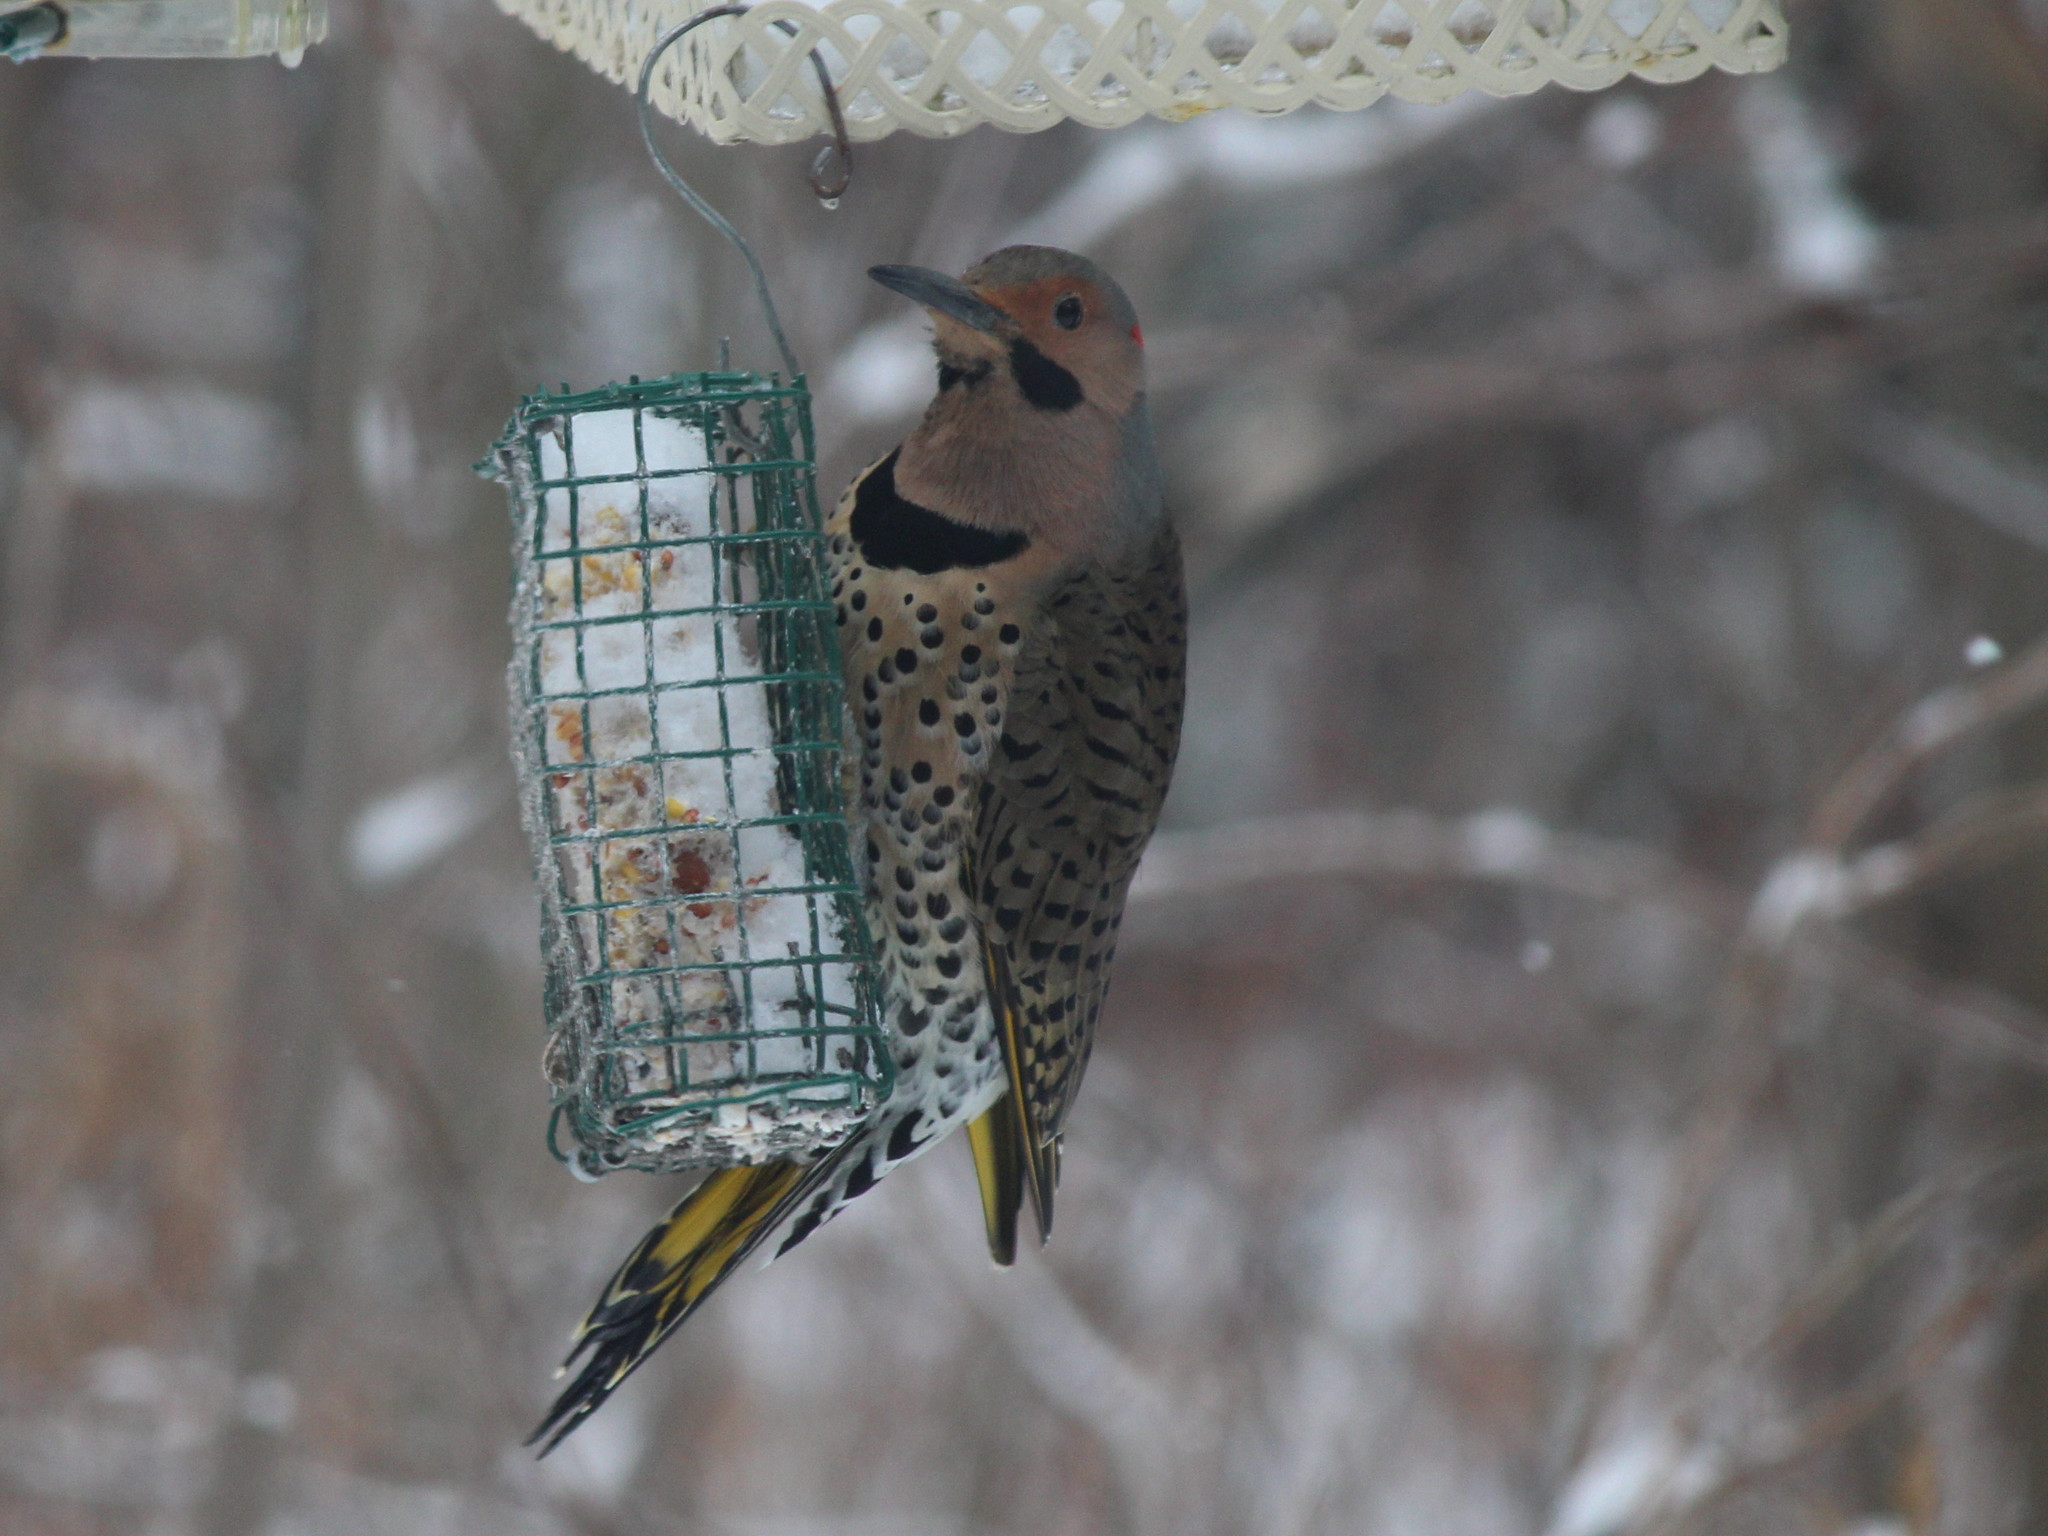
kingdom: Animalia
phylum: Chordata
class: Aves
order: Piciformes
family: Picidae
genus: Colaptes
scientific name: Colaptes auratus
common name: Northern flicker
